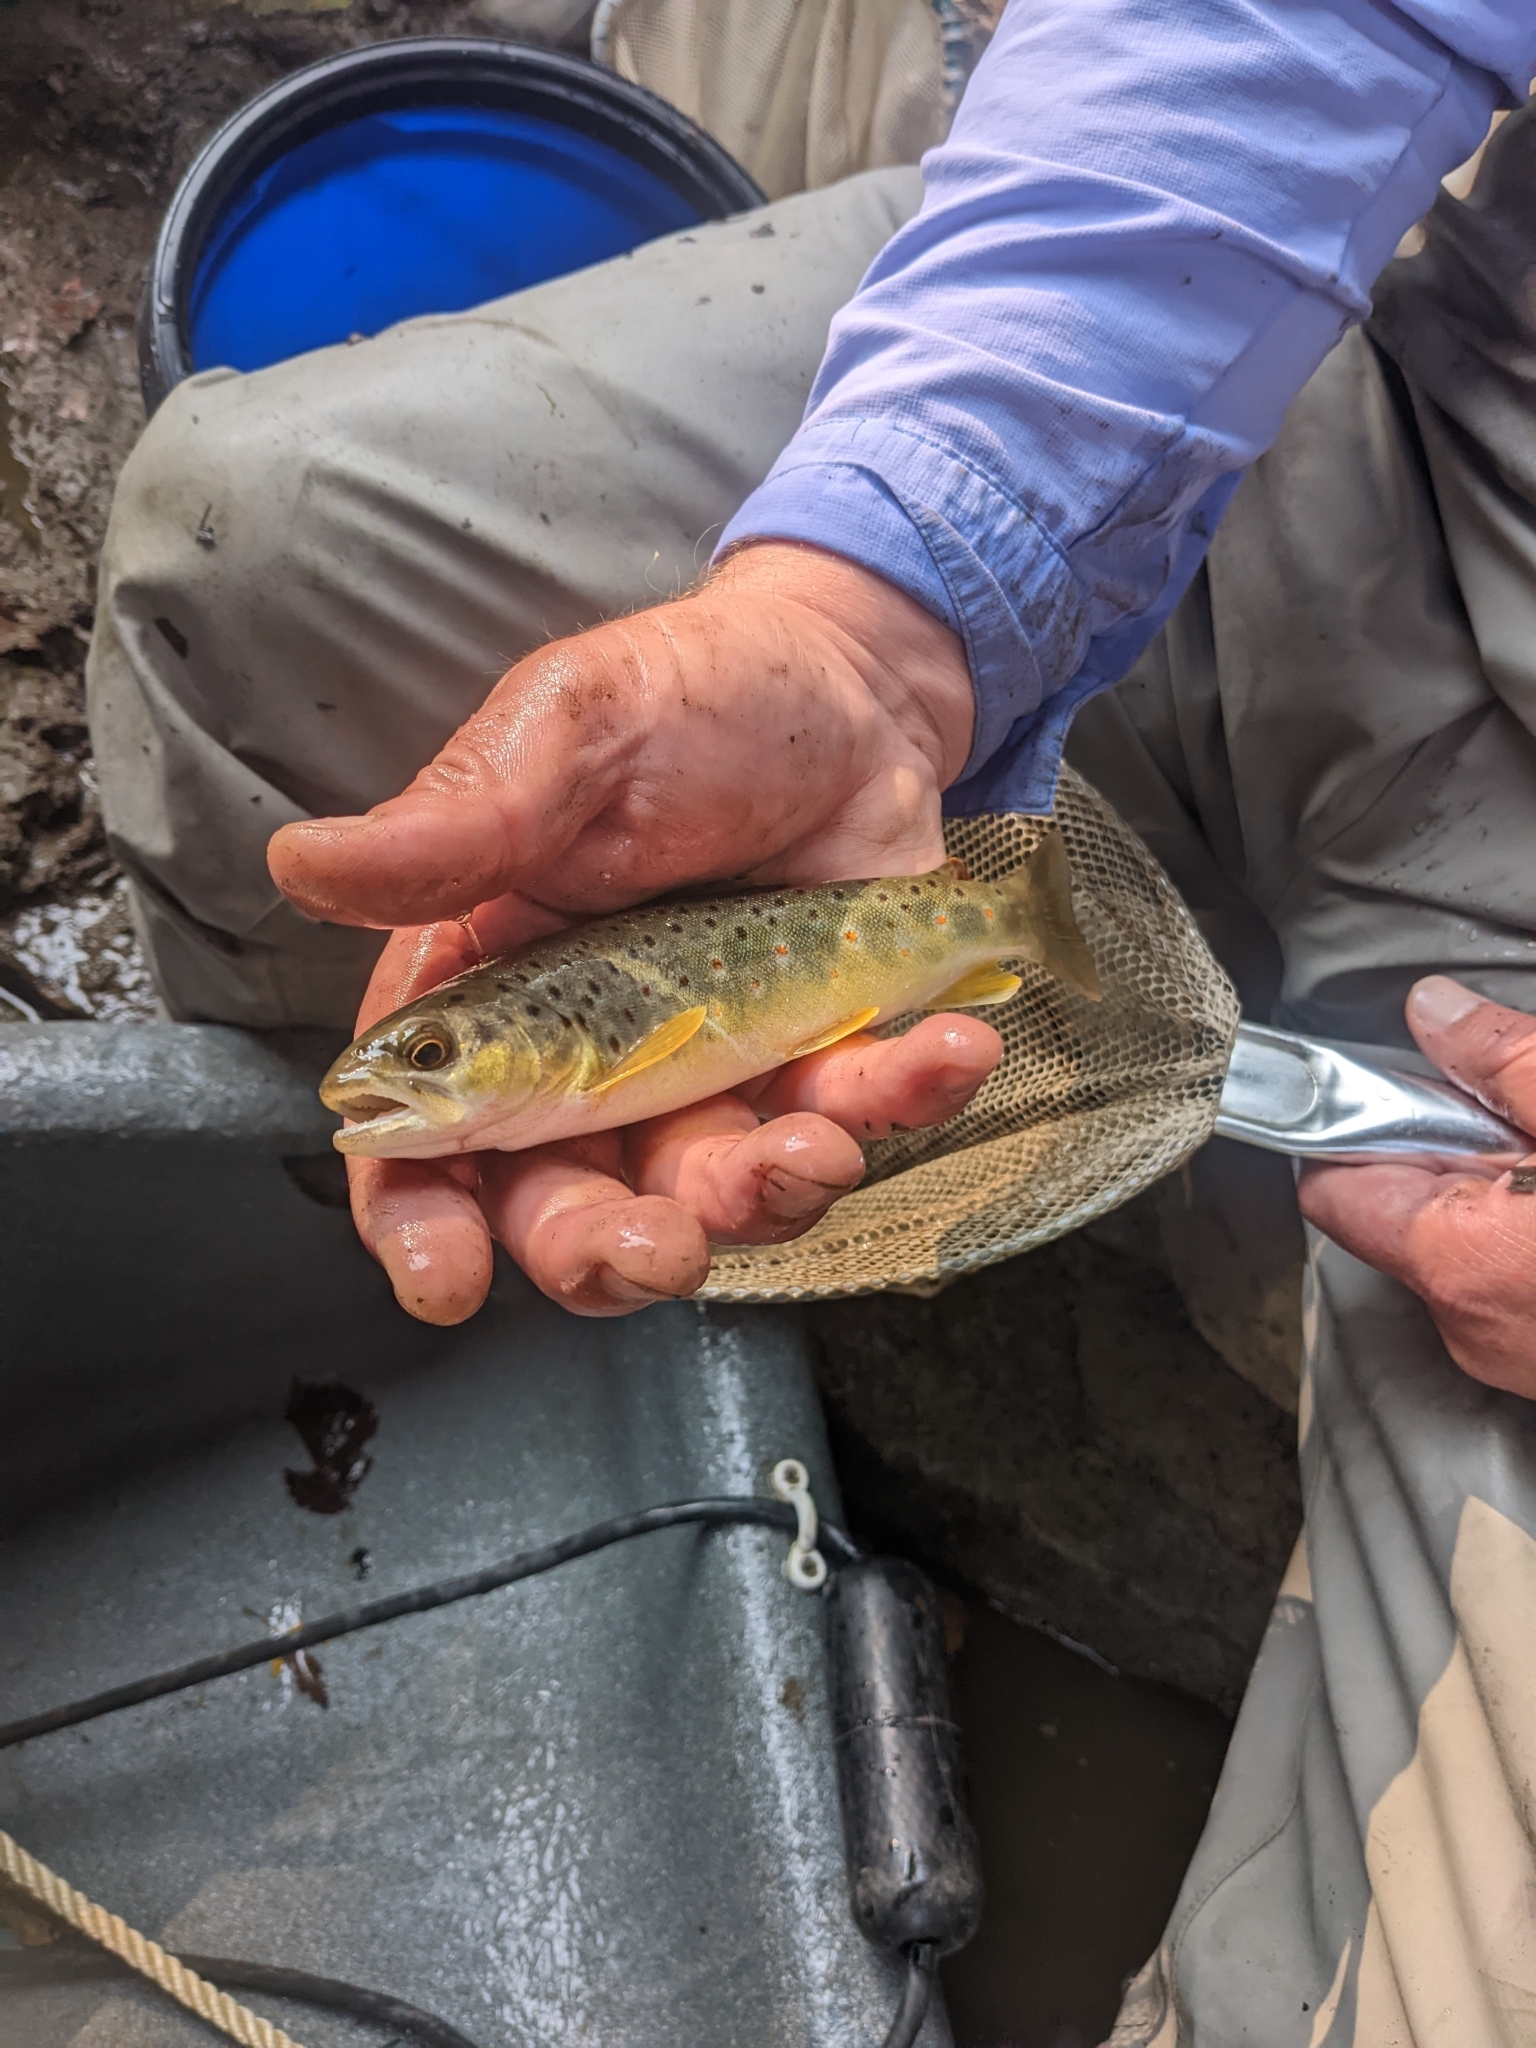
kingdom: Animalia
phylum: Chordata
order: Salmoniformes
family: Salmonidae
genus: Salmo
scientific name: Salmo trutta
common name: Brown trout
